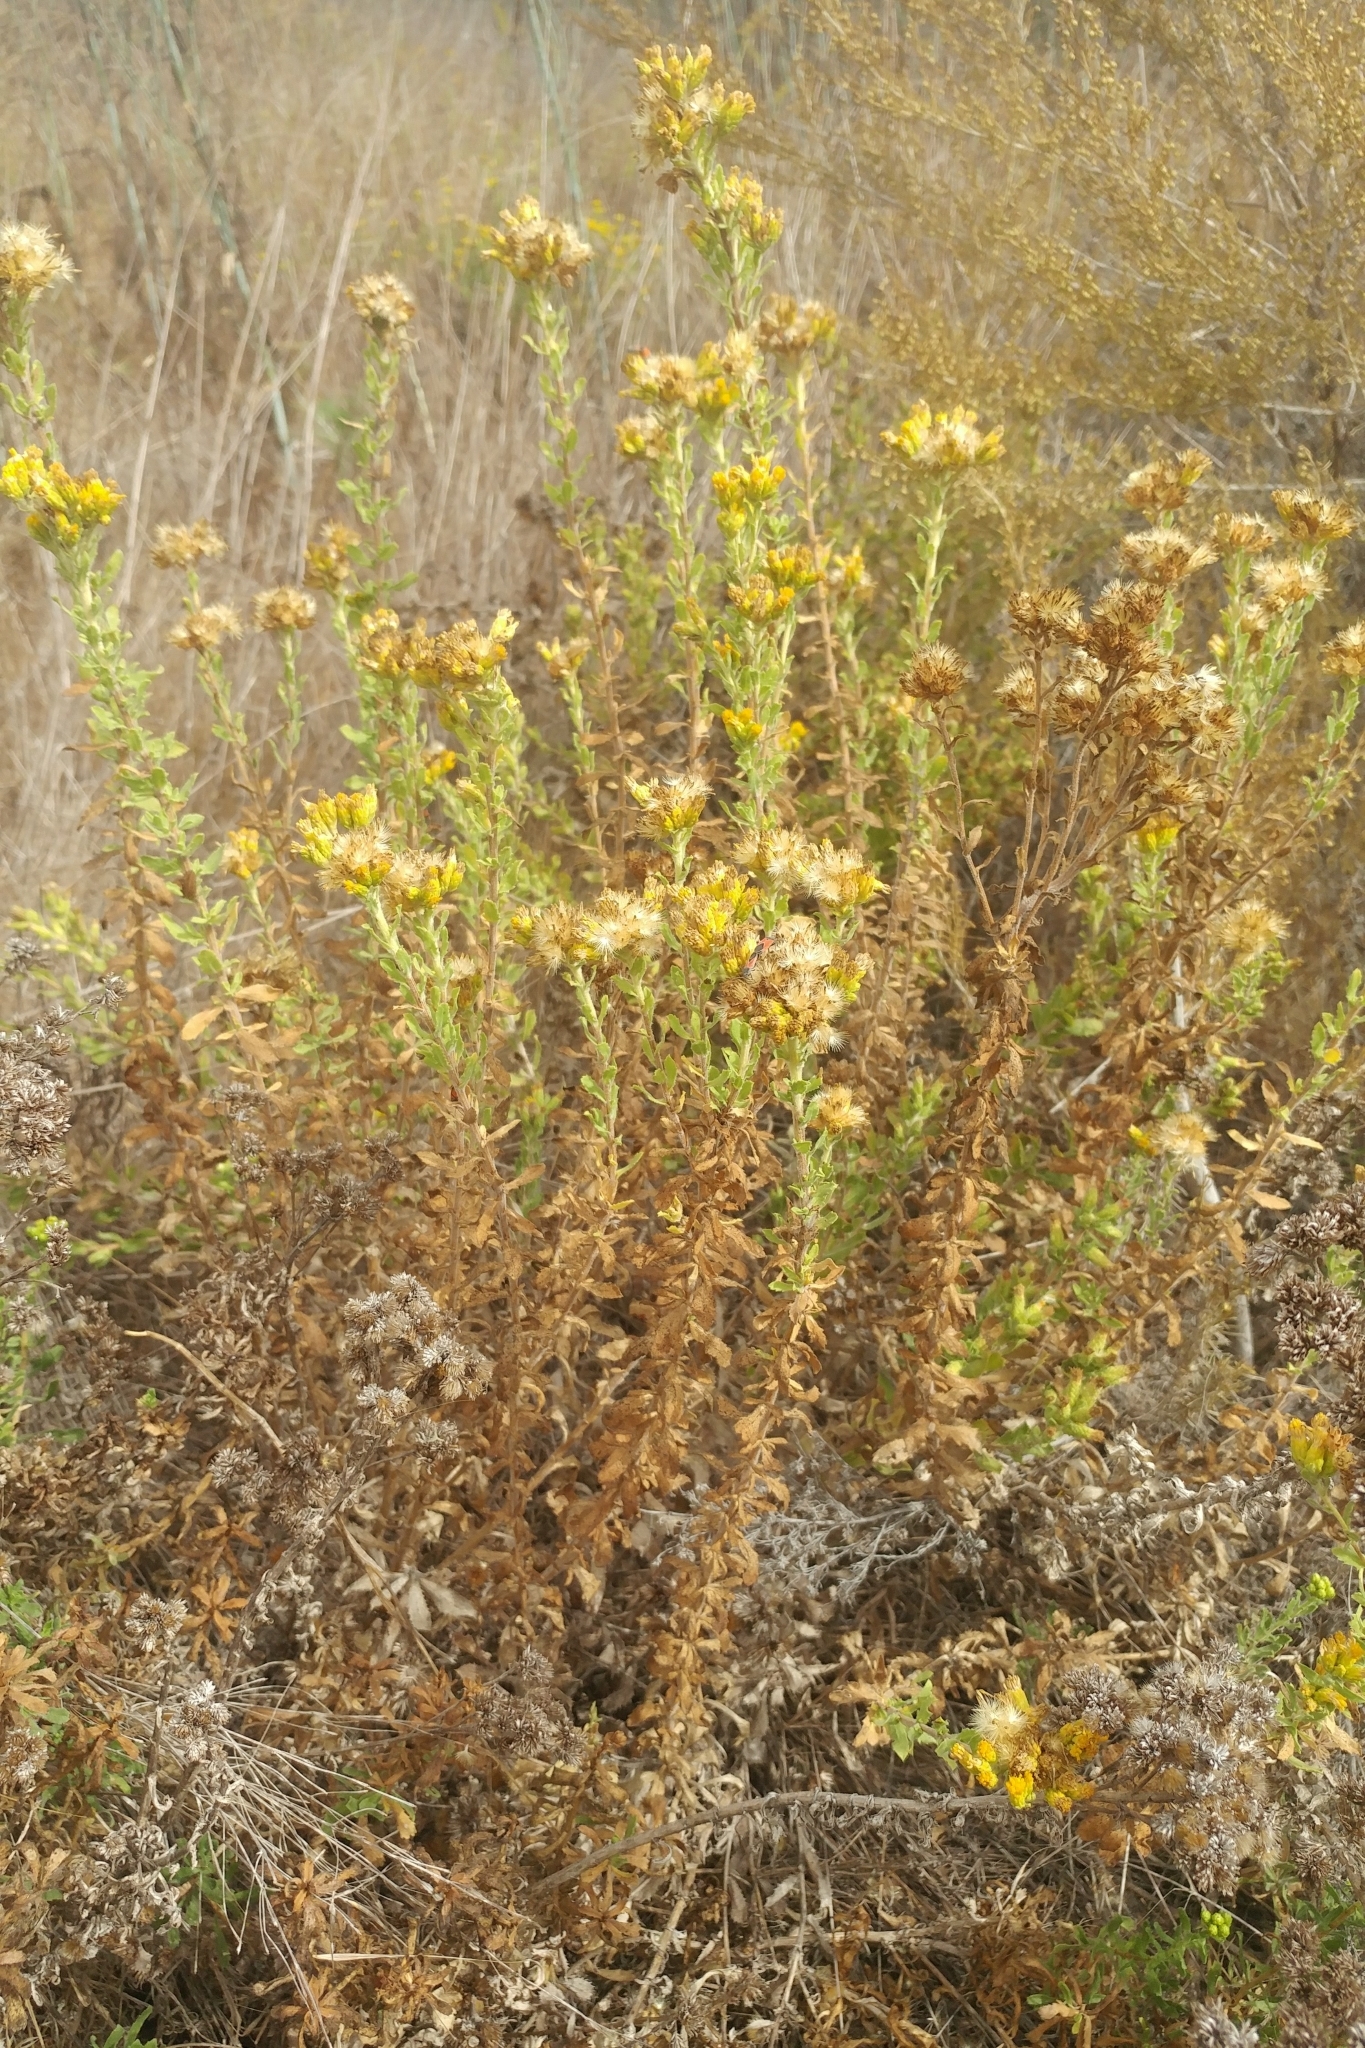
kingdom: Plantae
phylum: Tracheophyta
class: Magnoliopsida
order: Asterales
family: Asteraceae
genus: Isocoma
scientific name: Isocoma menziesii
